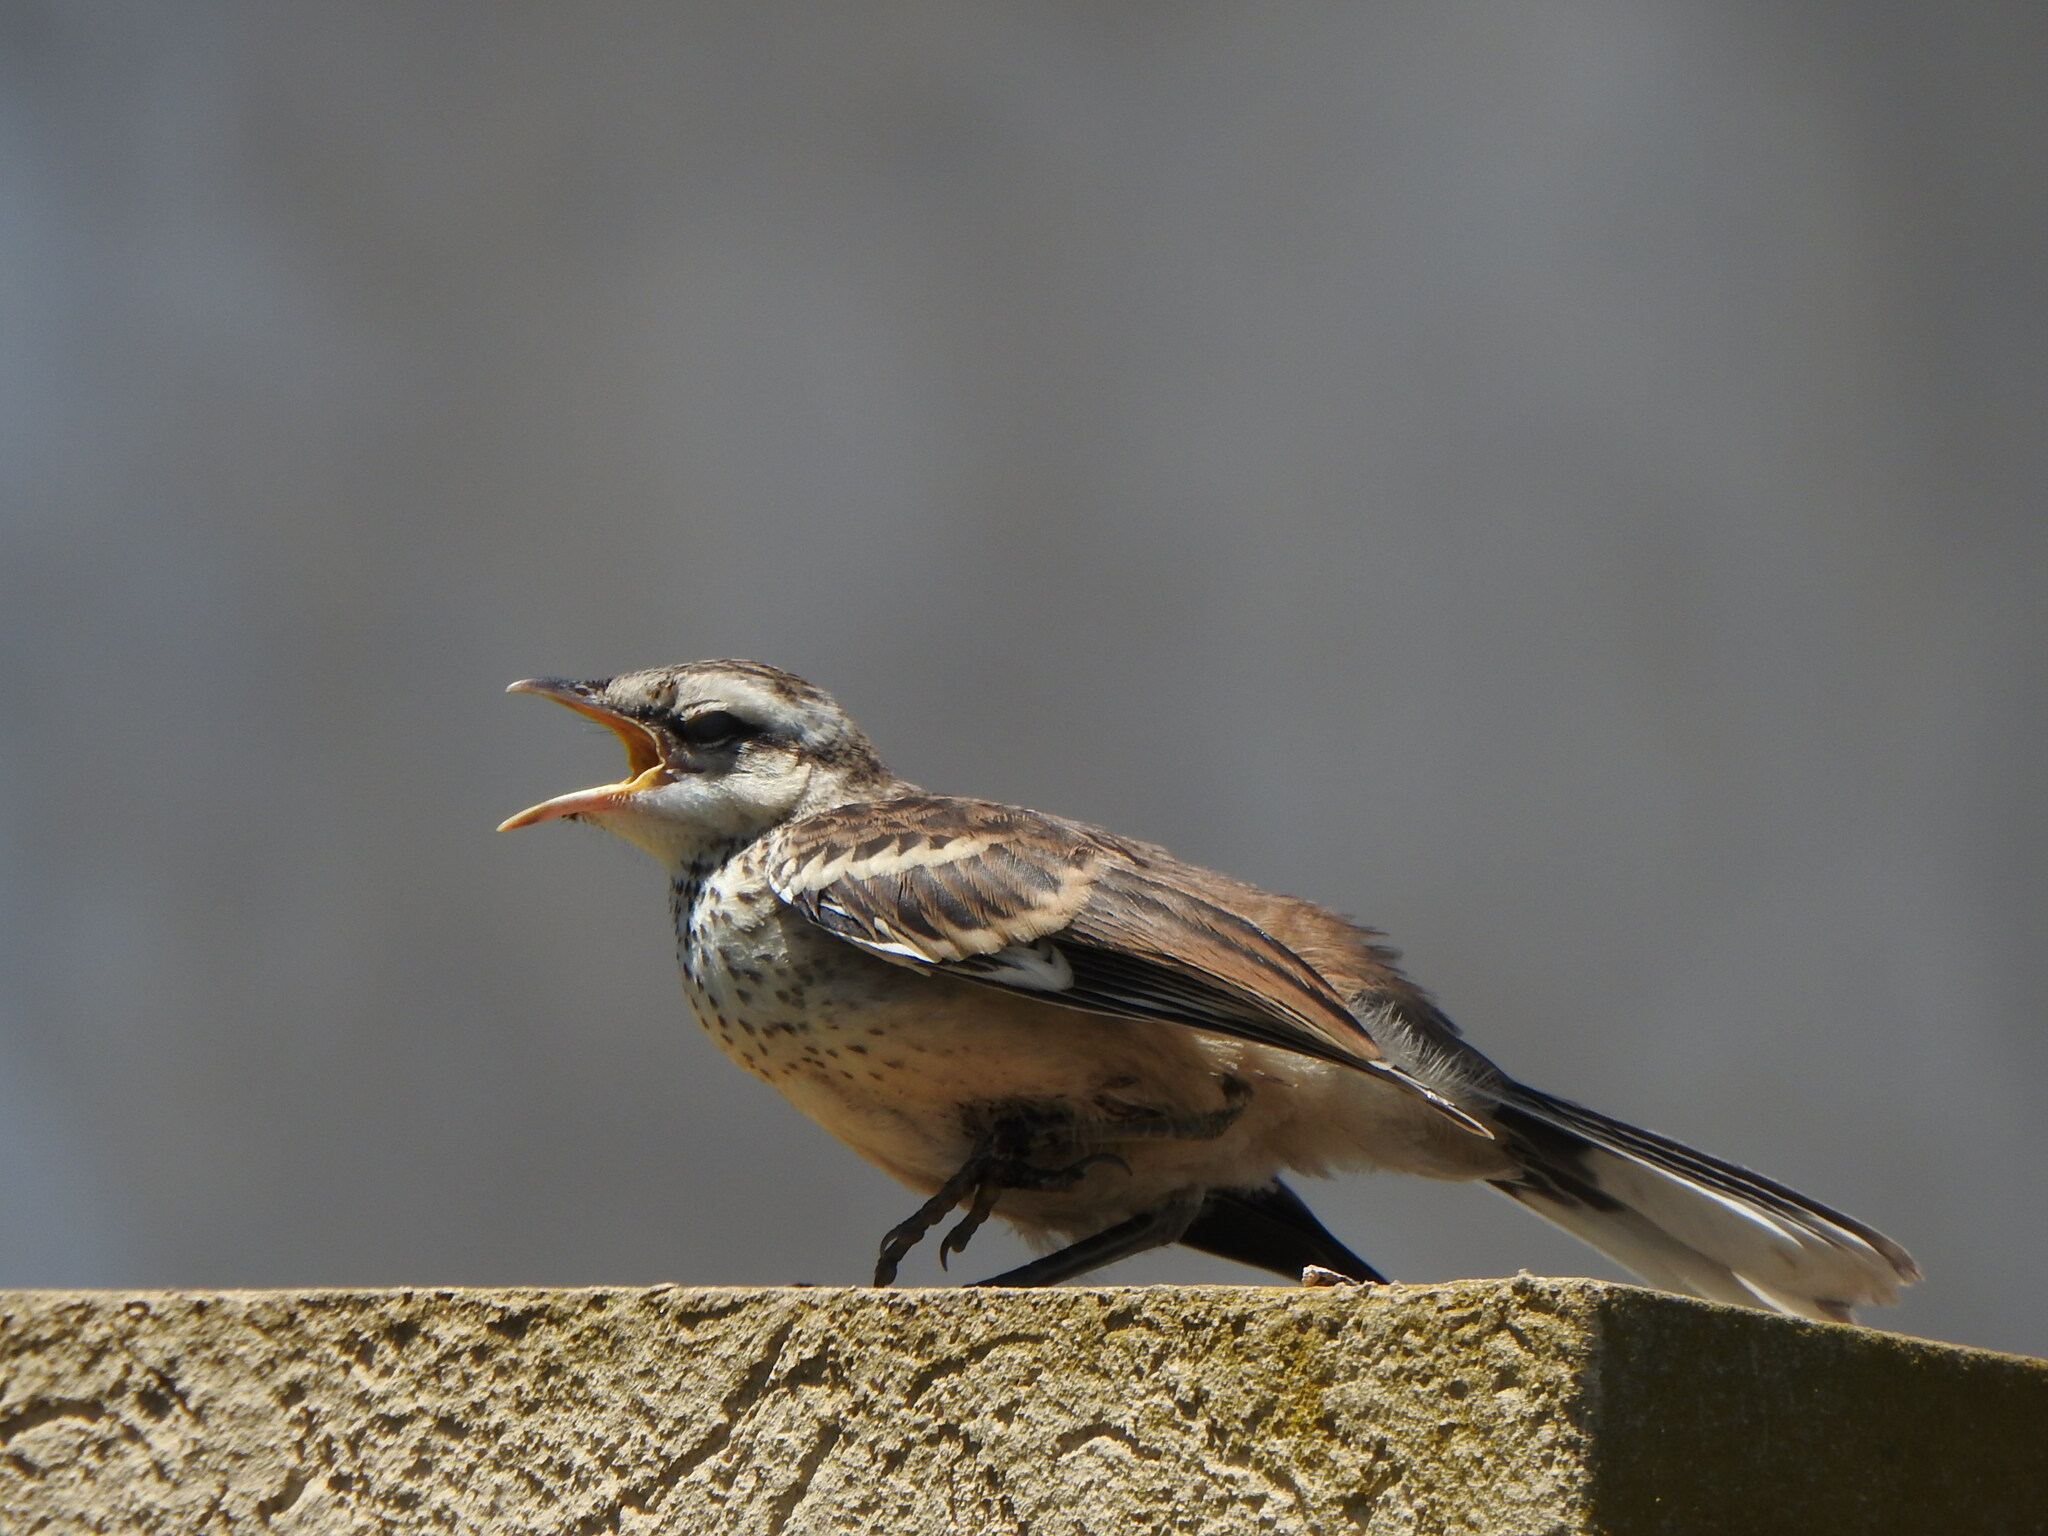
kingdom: Animalia
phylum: Chordata
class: Aves
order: Passeriformes
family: Mimidae
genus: Mimus
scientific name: Mimus saturninus
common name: Chalk-browed mockingbird
